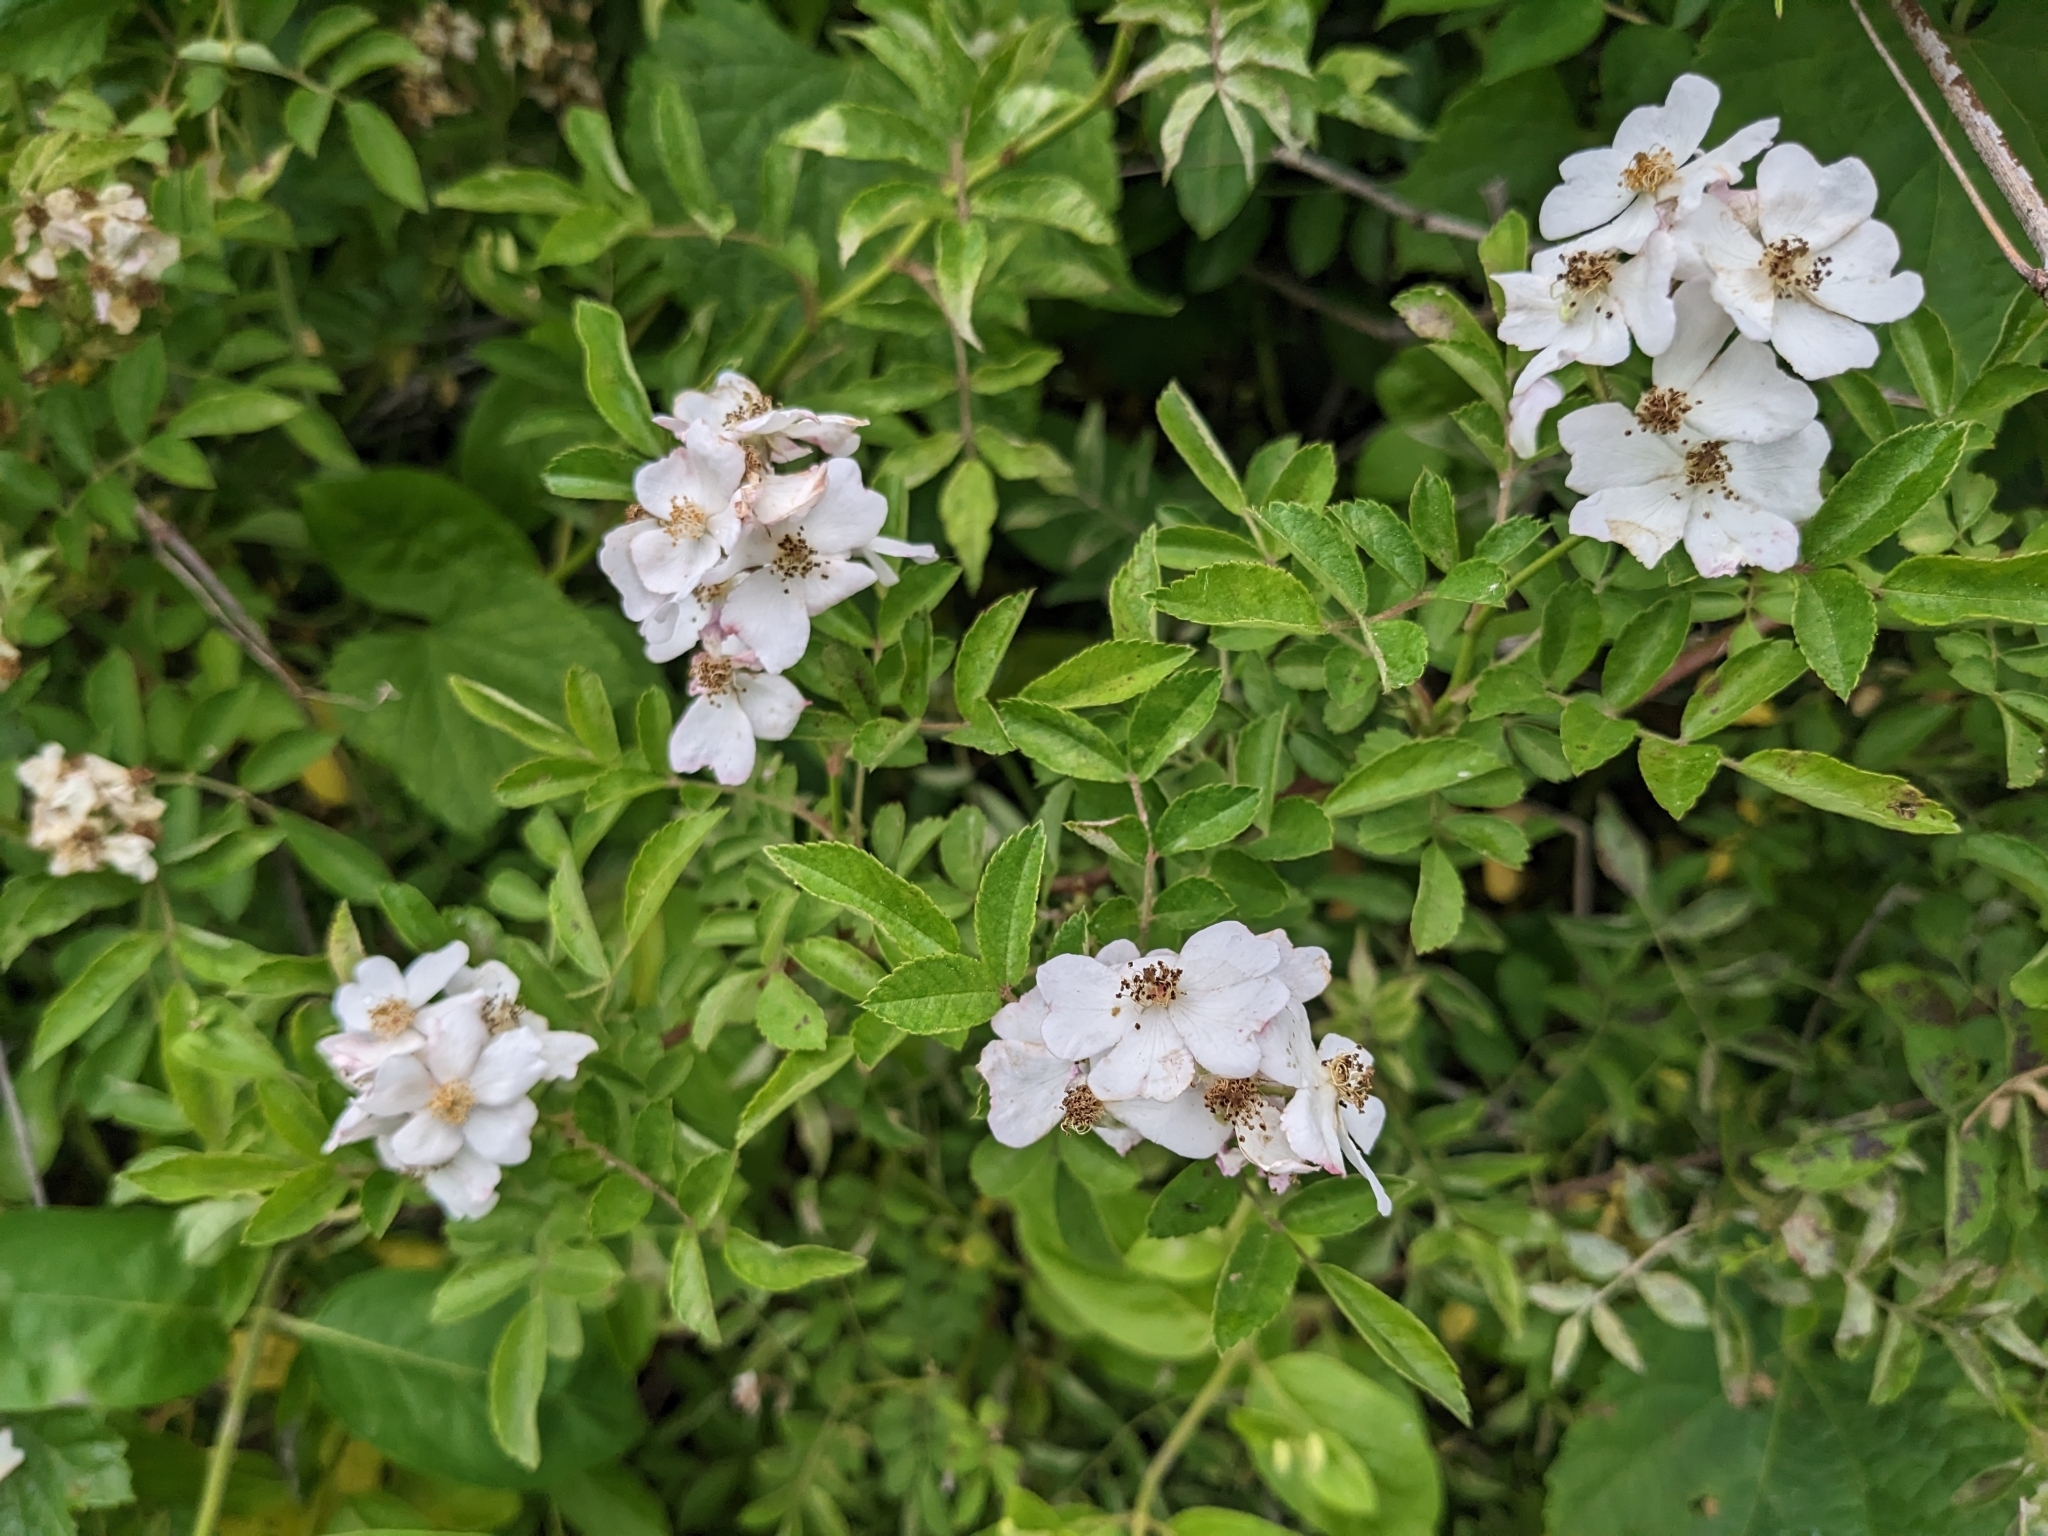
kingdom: Plantae
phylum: Tracheophyta
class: Magnoliopsida
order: Rosales
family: Rosaceae
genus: Rosa
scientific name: Rosa multiflora
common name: Multiflora rose
